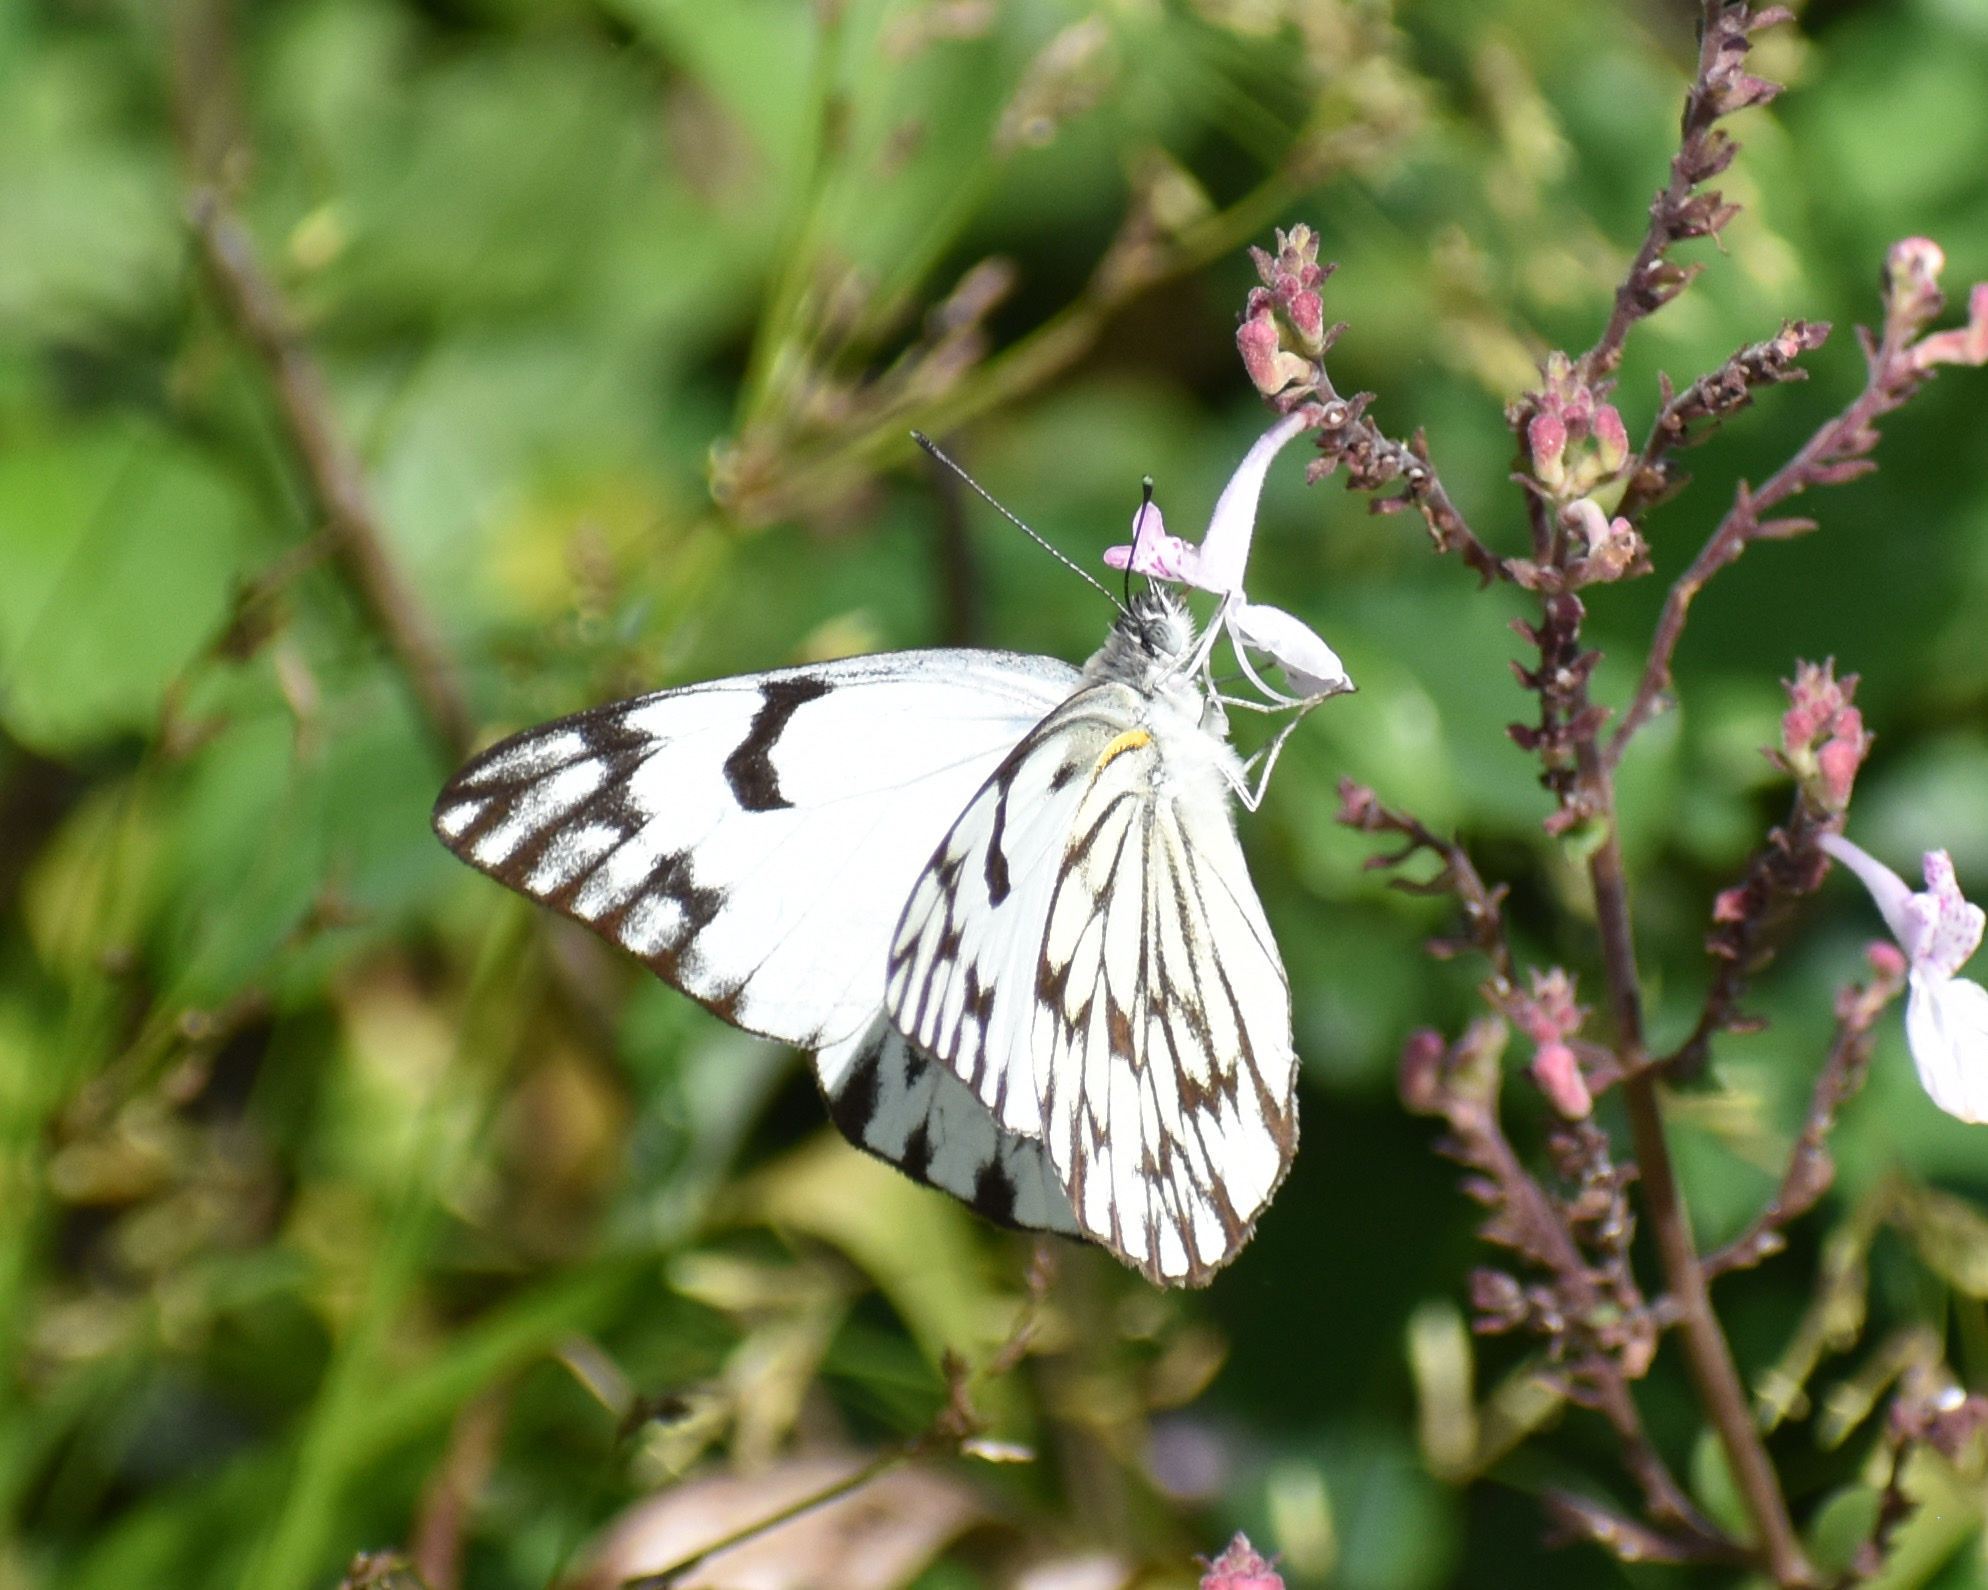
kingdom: Animalia
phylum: Arthropoda
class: Insecta
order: Lepidoptera
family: Pieridae
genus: Belenois
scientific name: Belenois gidica
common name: Pointed caper white
